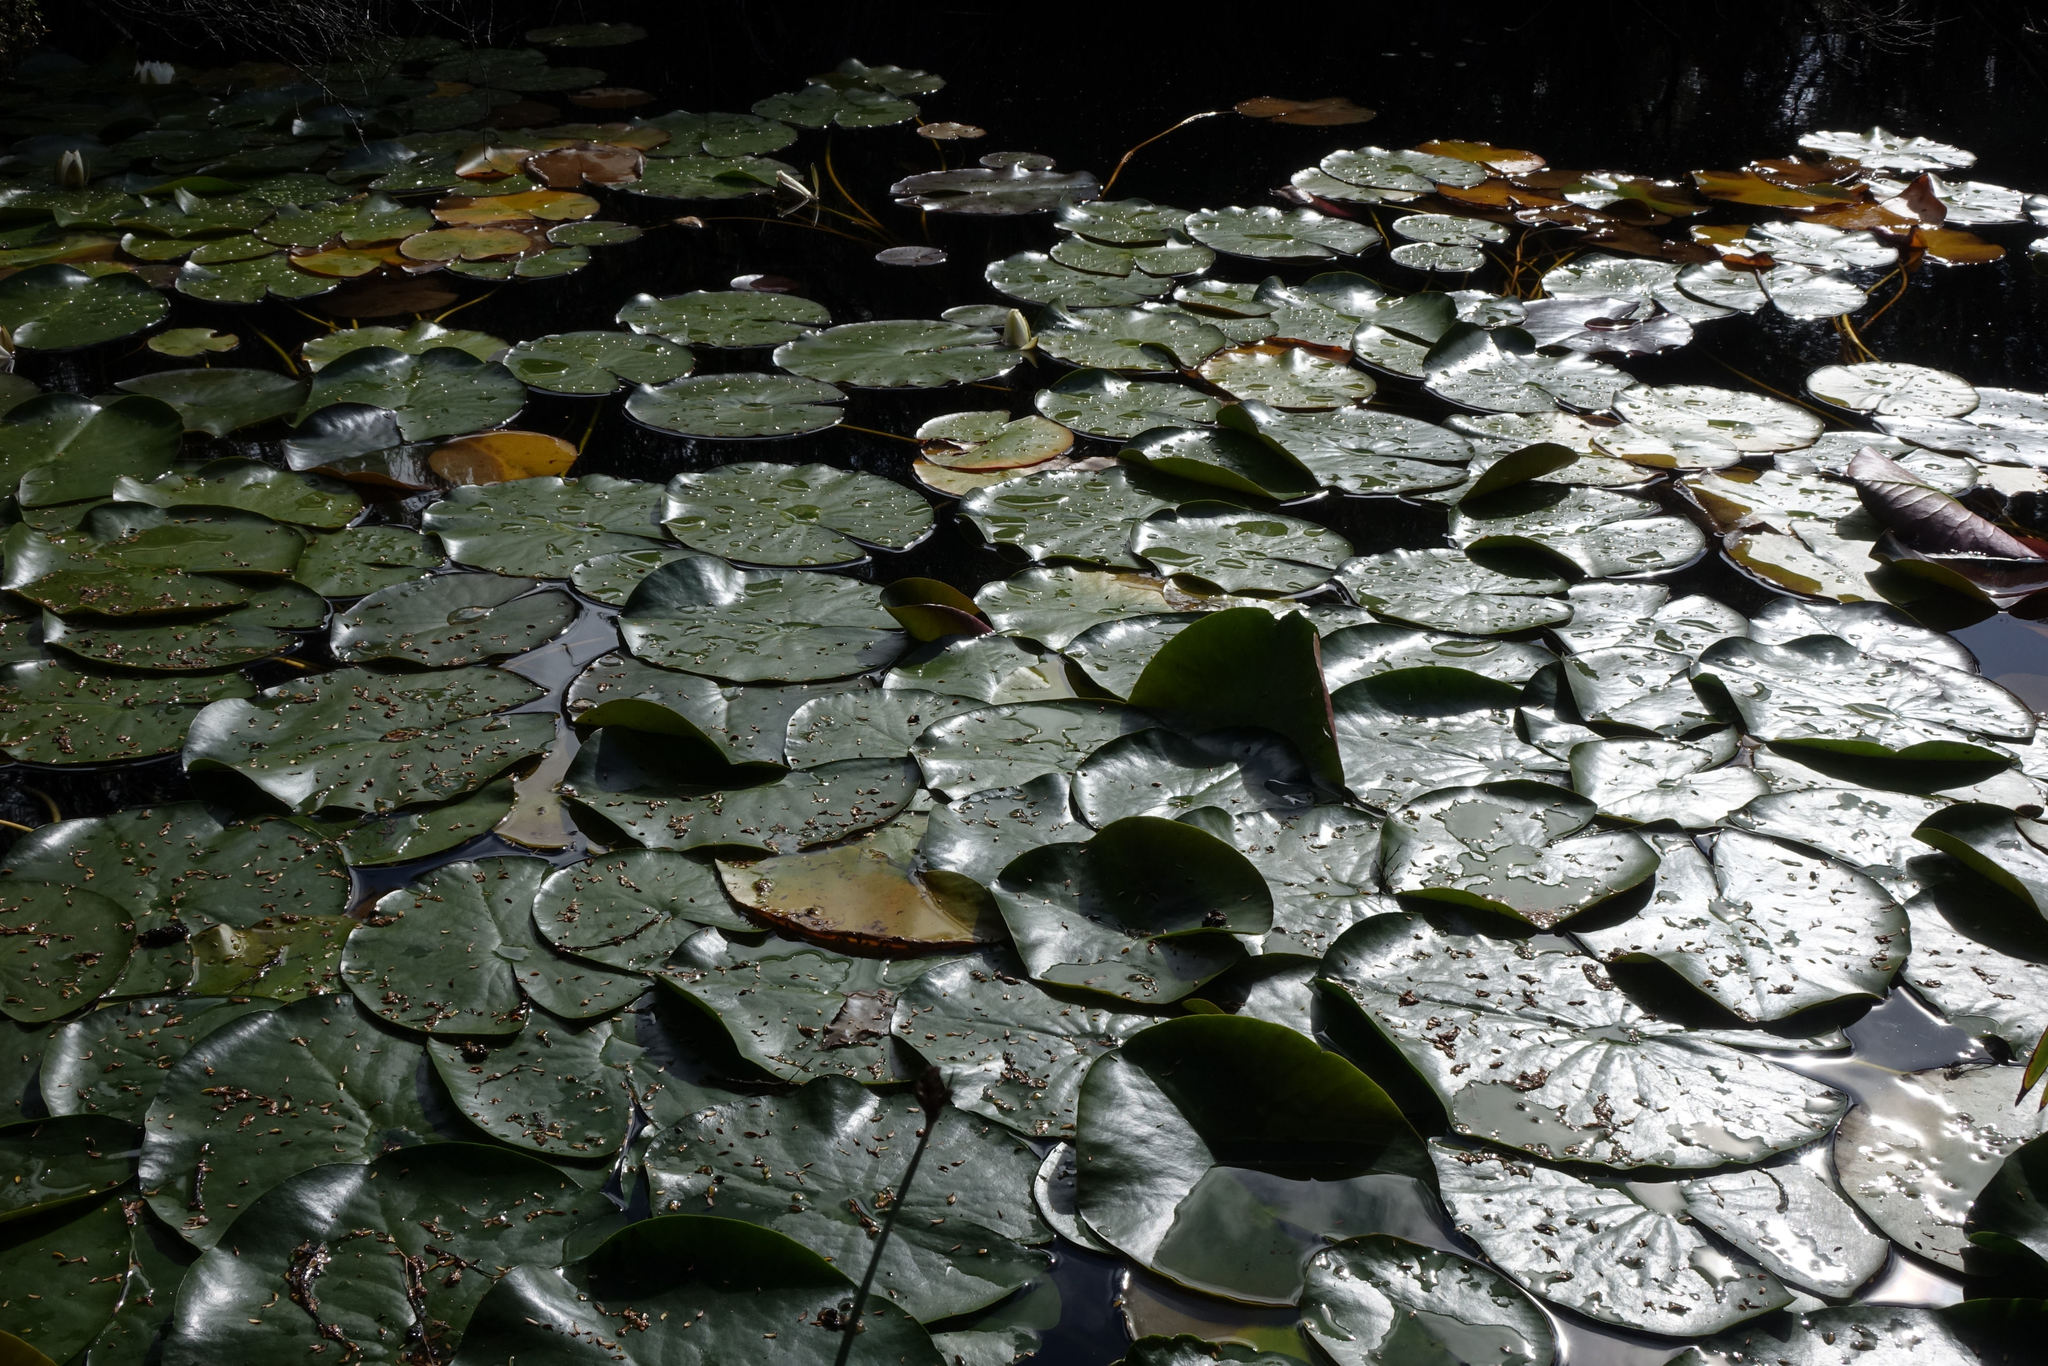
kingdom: Plantae
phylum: Tracheophyta
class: Magnoliopsida
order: Nymphaeales
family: Nymphaeaceae
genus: Nymphaea
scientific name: Nymphaea alba
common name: White water-lily
